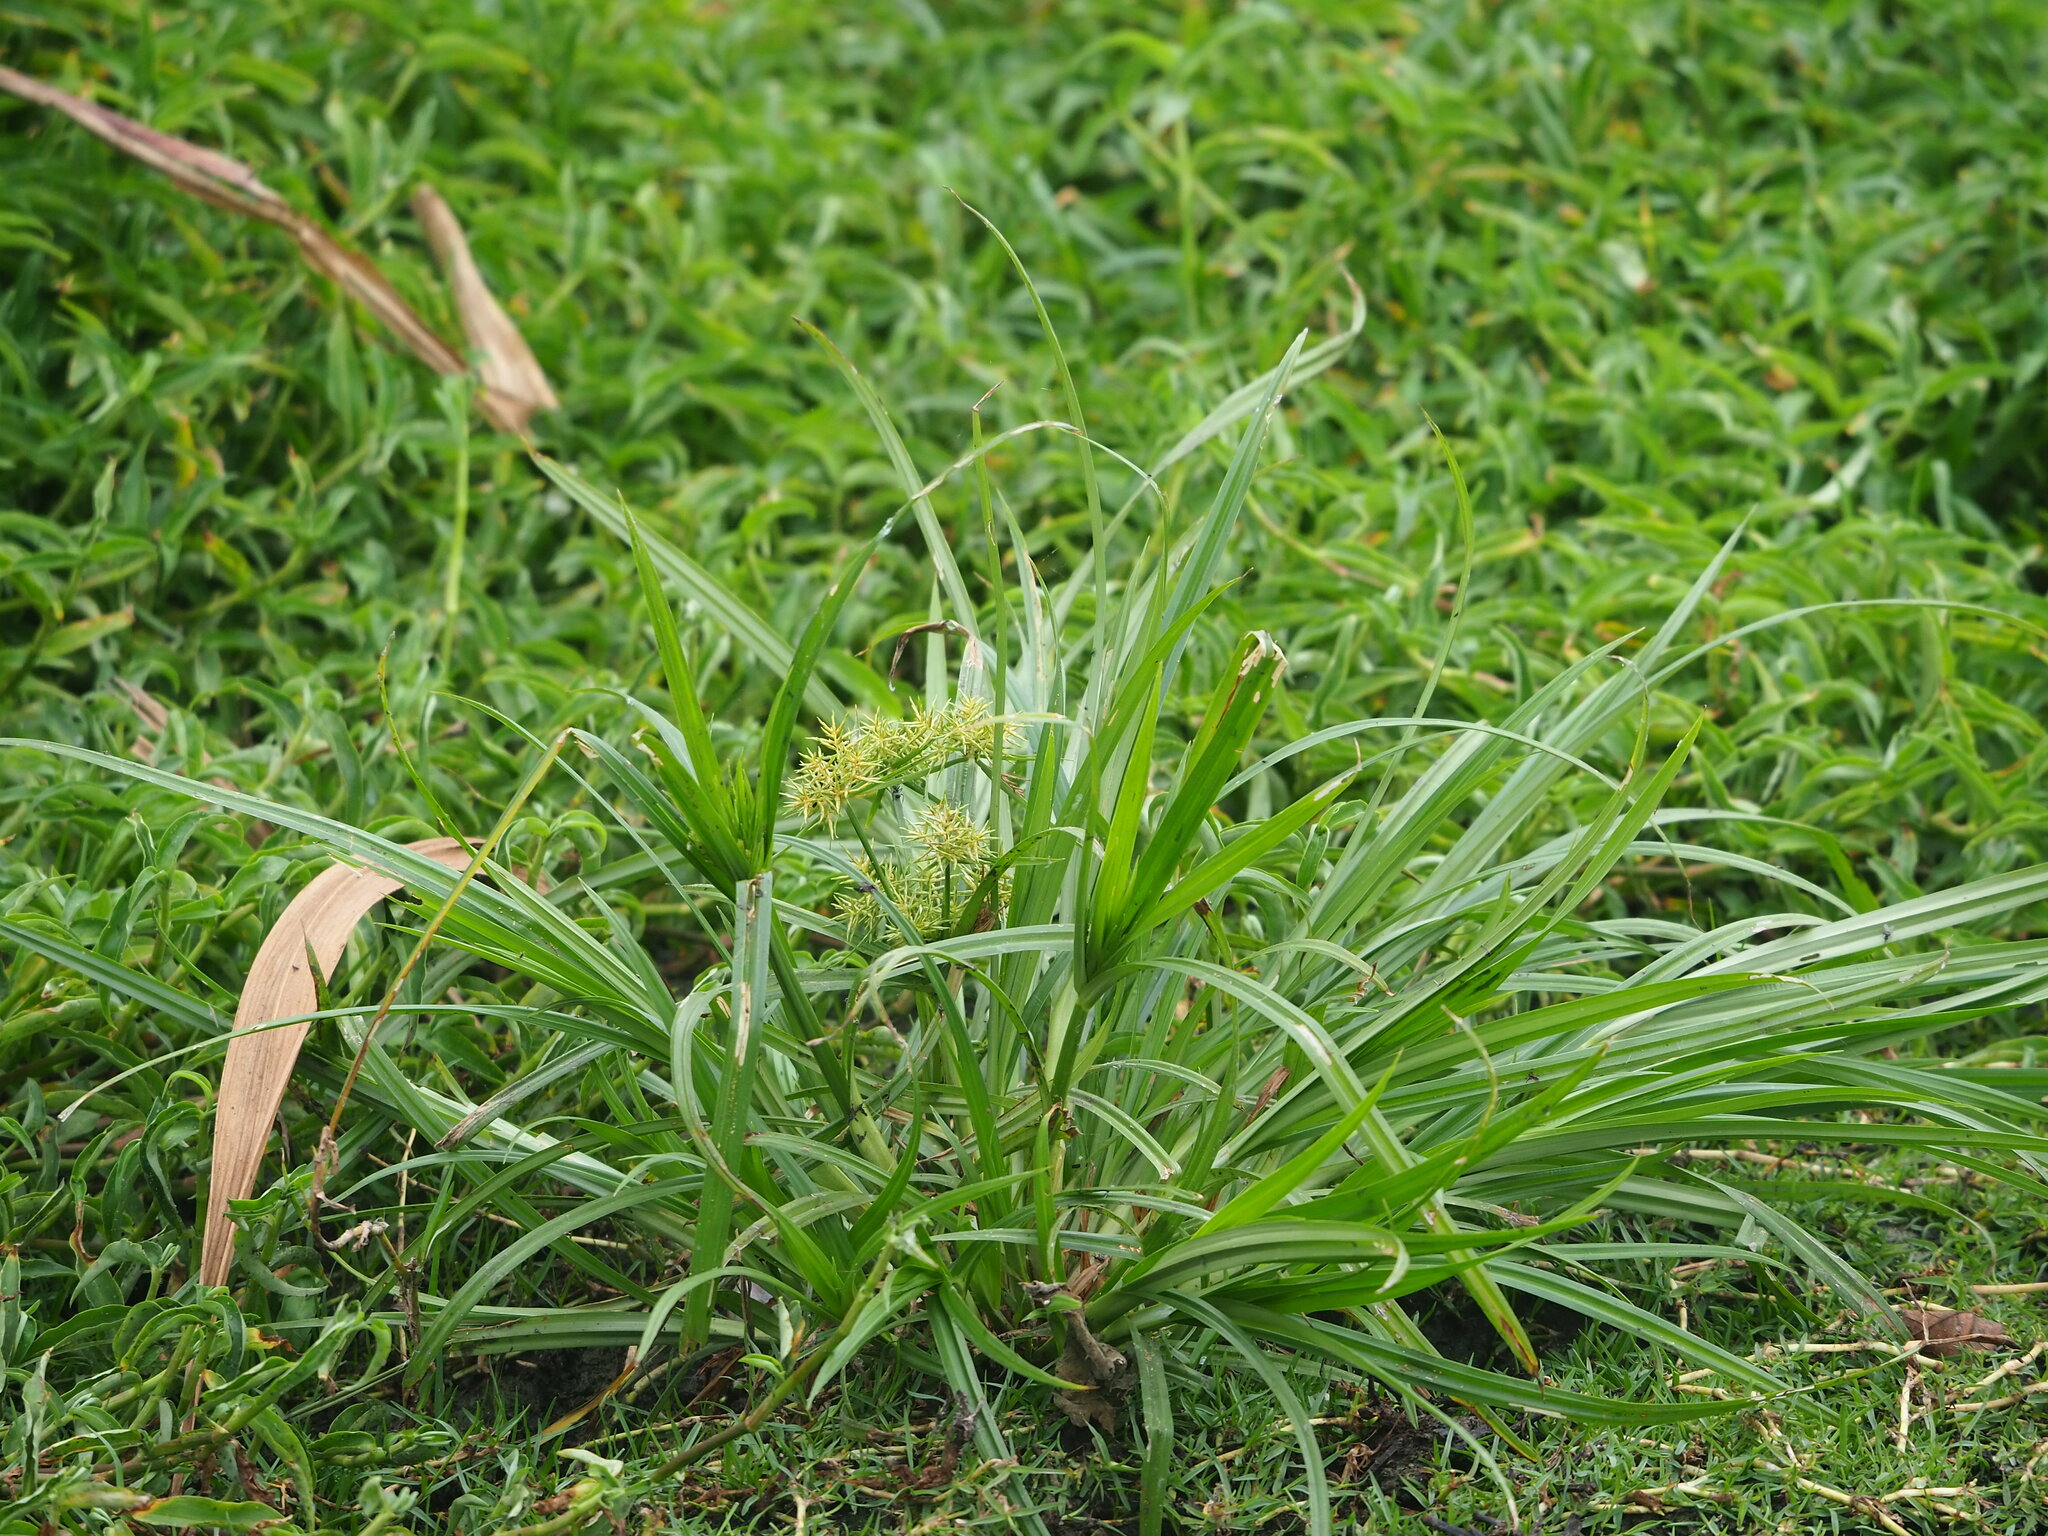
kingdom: Plantae
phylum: Tracheophyta
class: Liliopsida
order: Poales
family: Cyperaceae
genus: Cyperus
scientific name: Cyperus odoratus
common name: Fragrant flatsedge
